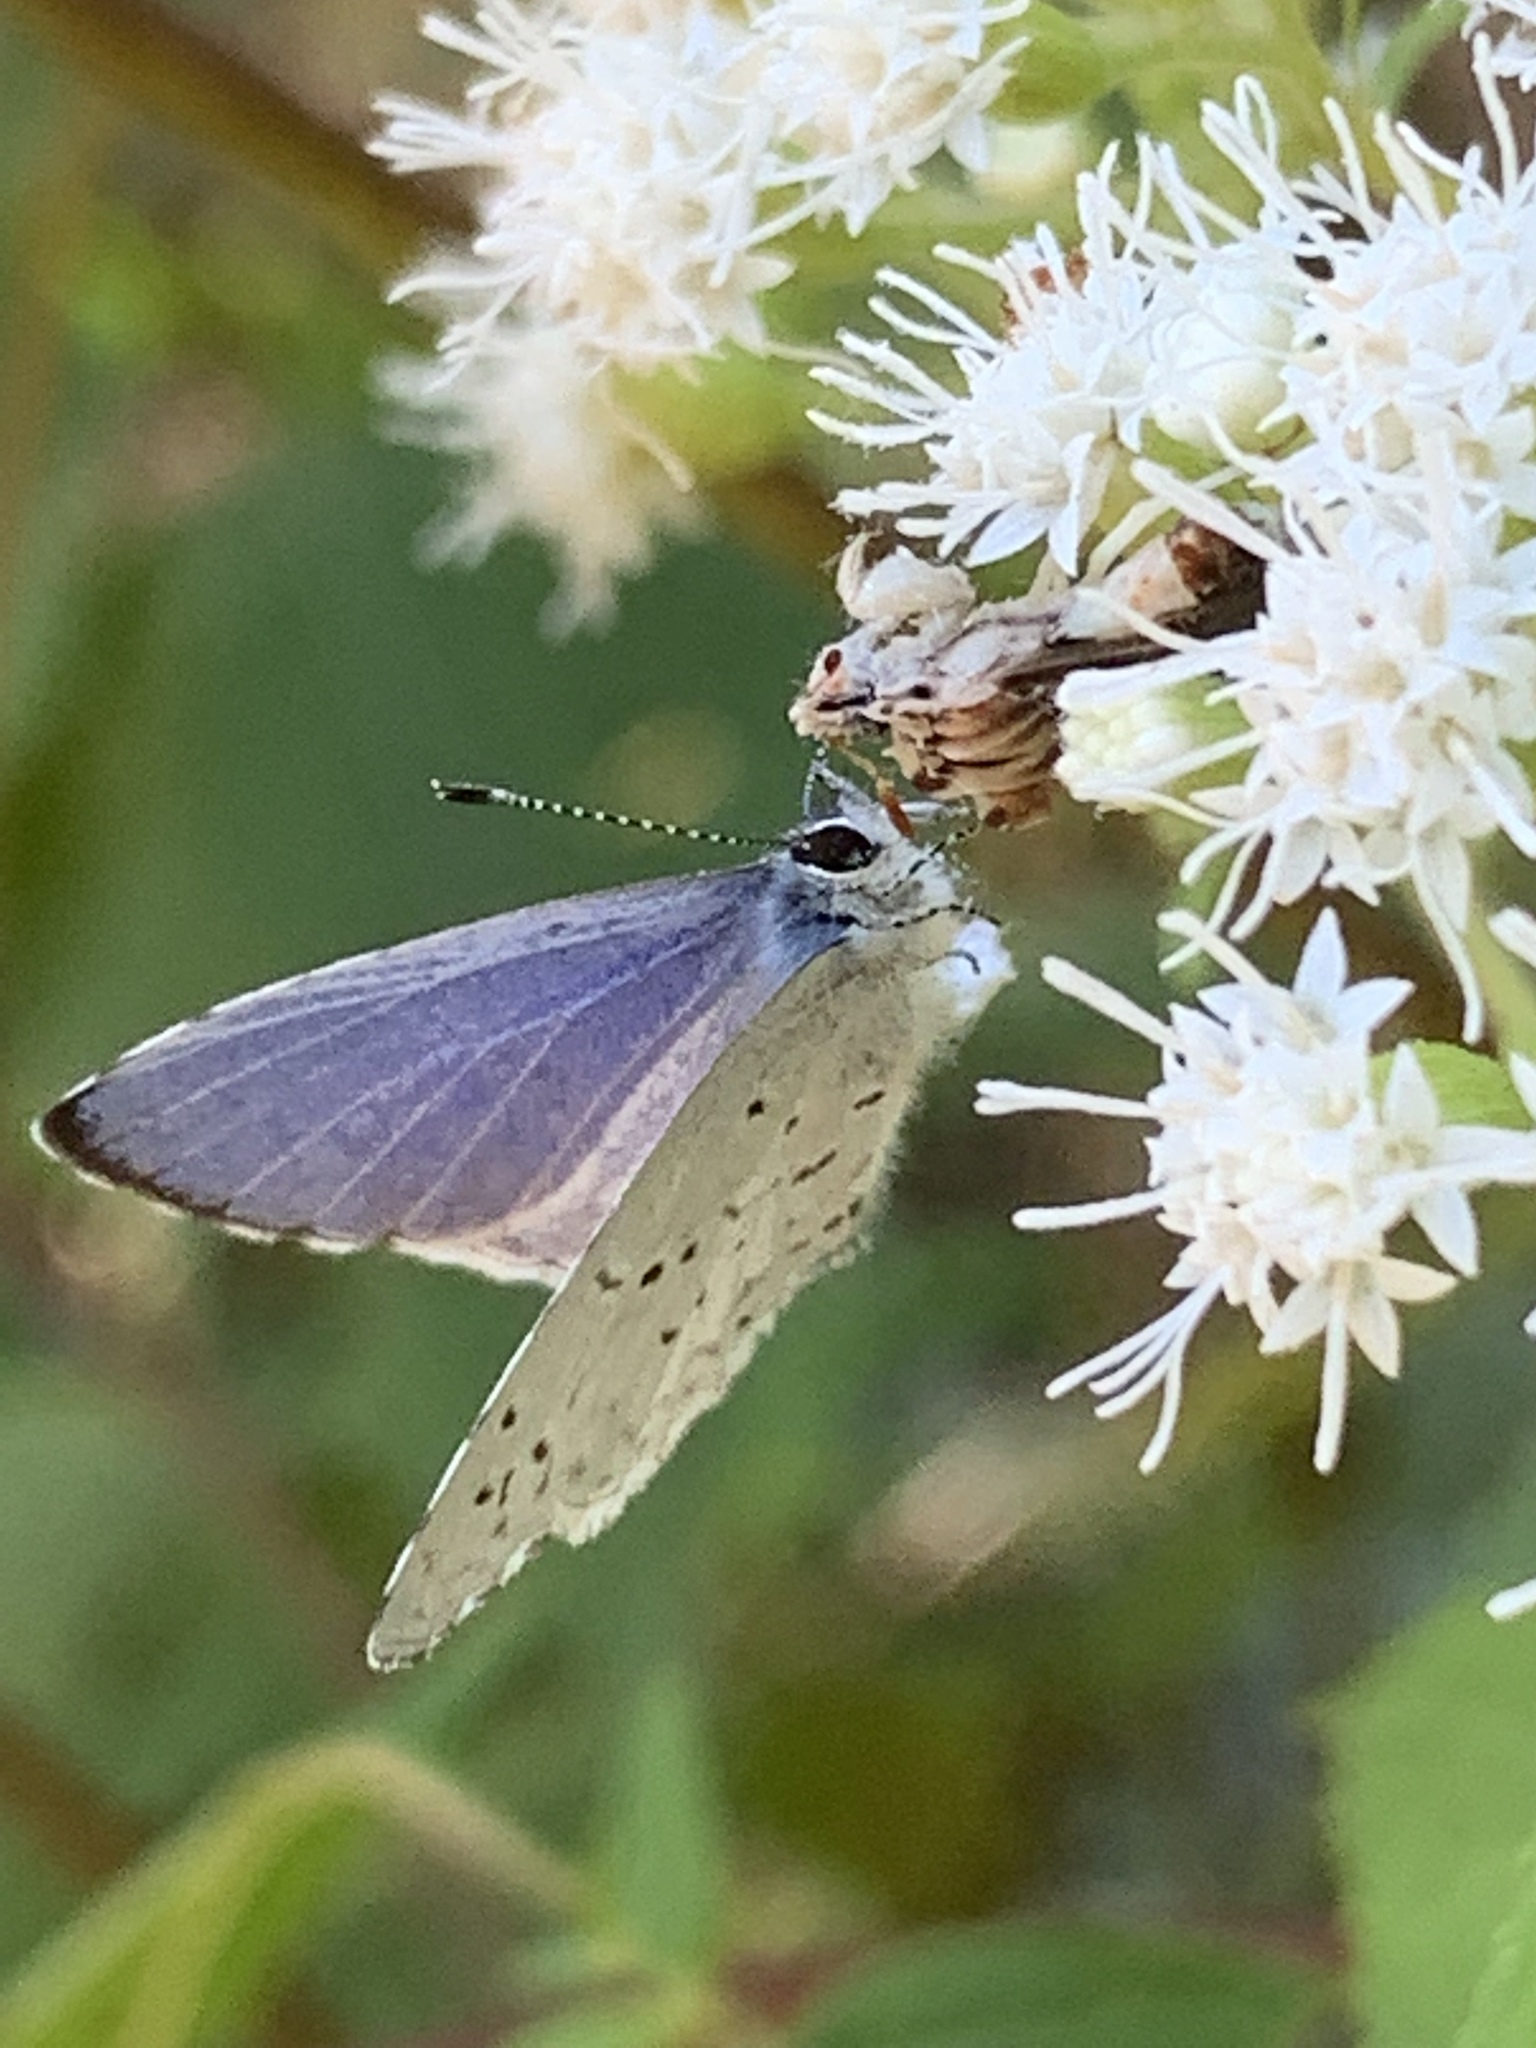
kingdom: Animalia
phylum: Arthropoda
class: Insecta
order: Lepidoptera
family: Lycaenidae
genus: Cyaniris
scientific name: Cyaniris neglecta
